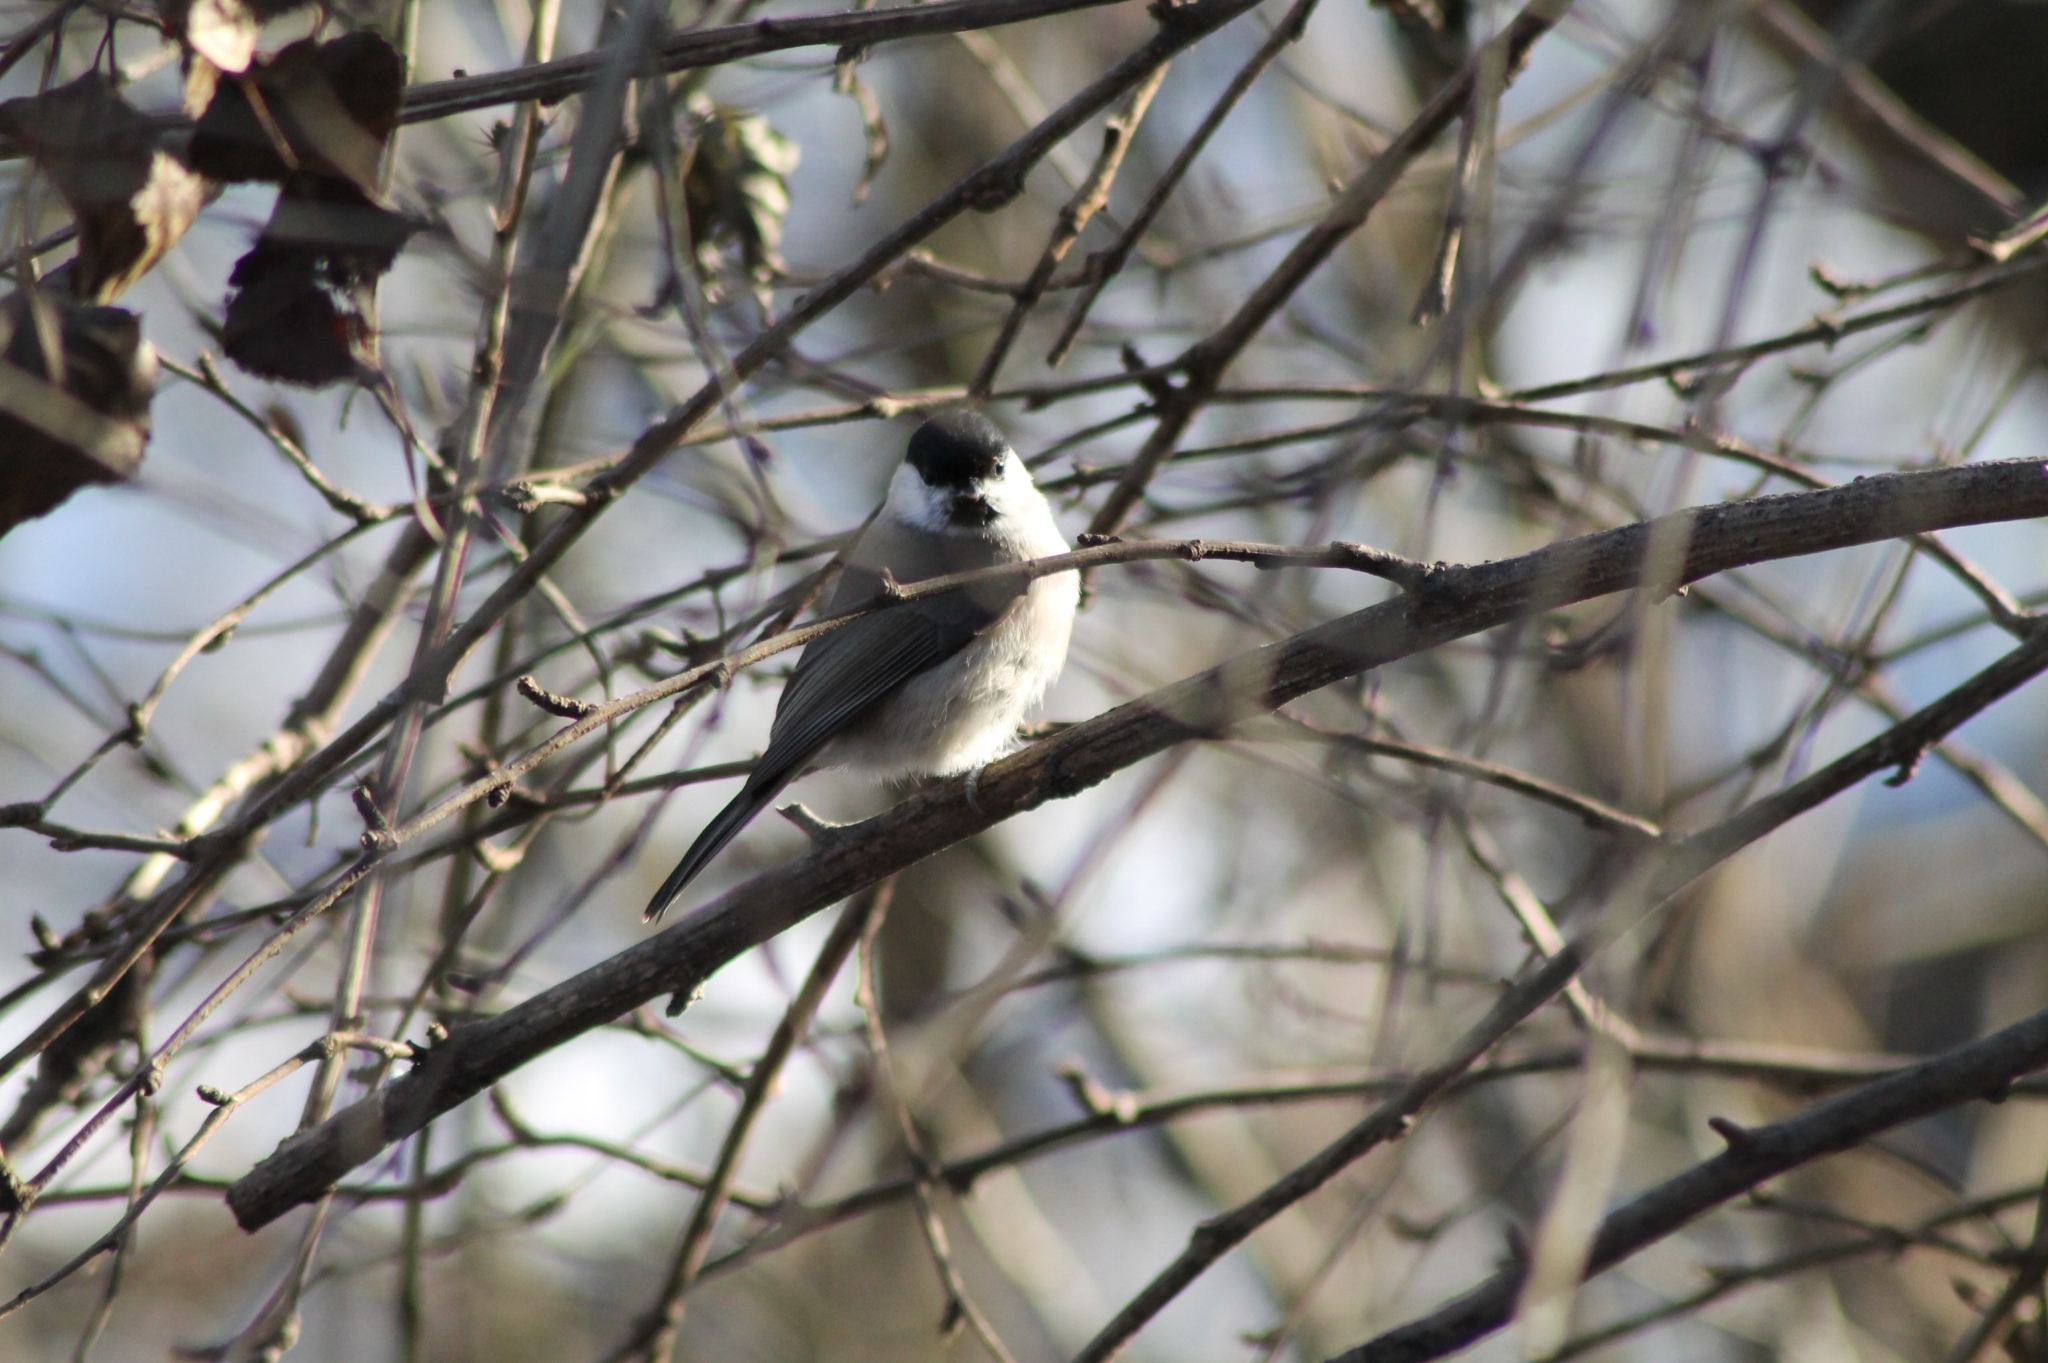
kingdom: Animalia
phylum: Chordata
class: Aves
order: Passeriformes
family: Paridae
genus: Poecile
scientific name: Poecile palustris
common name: Marsh tit
